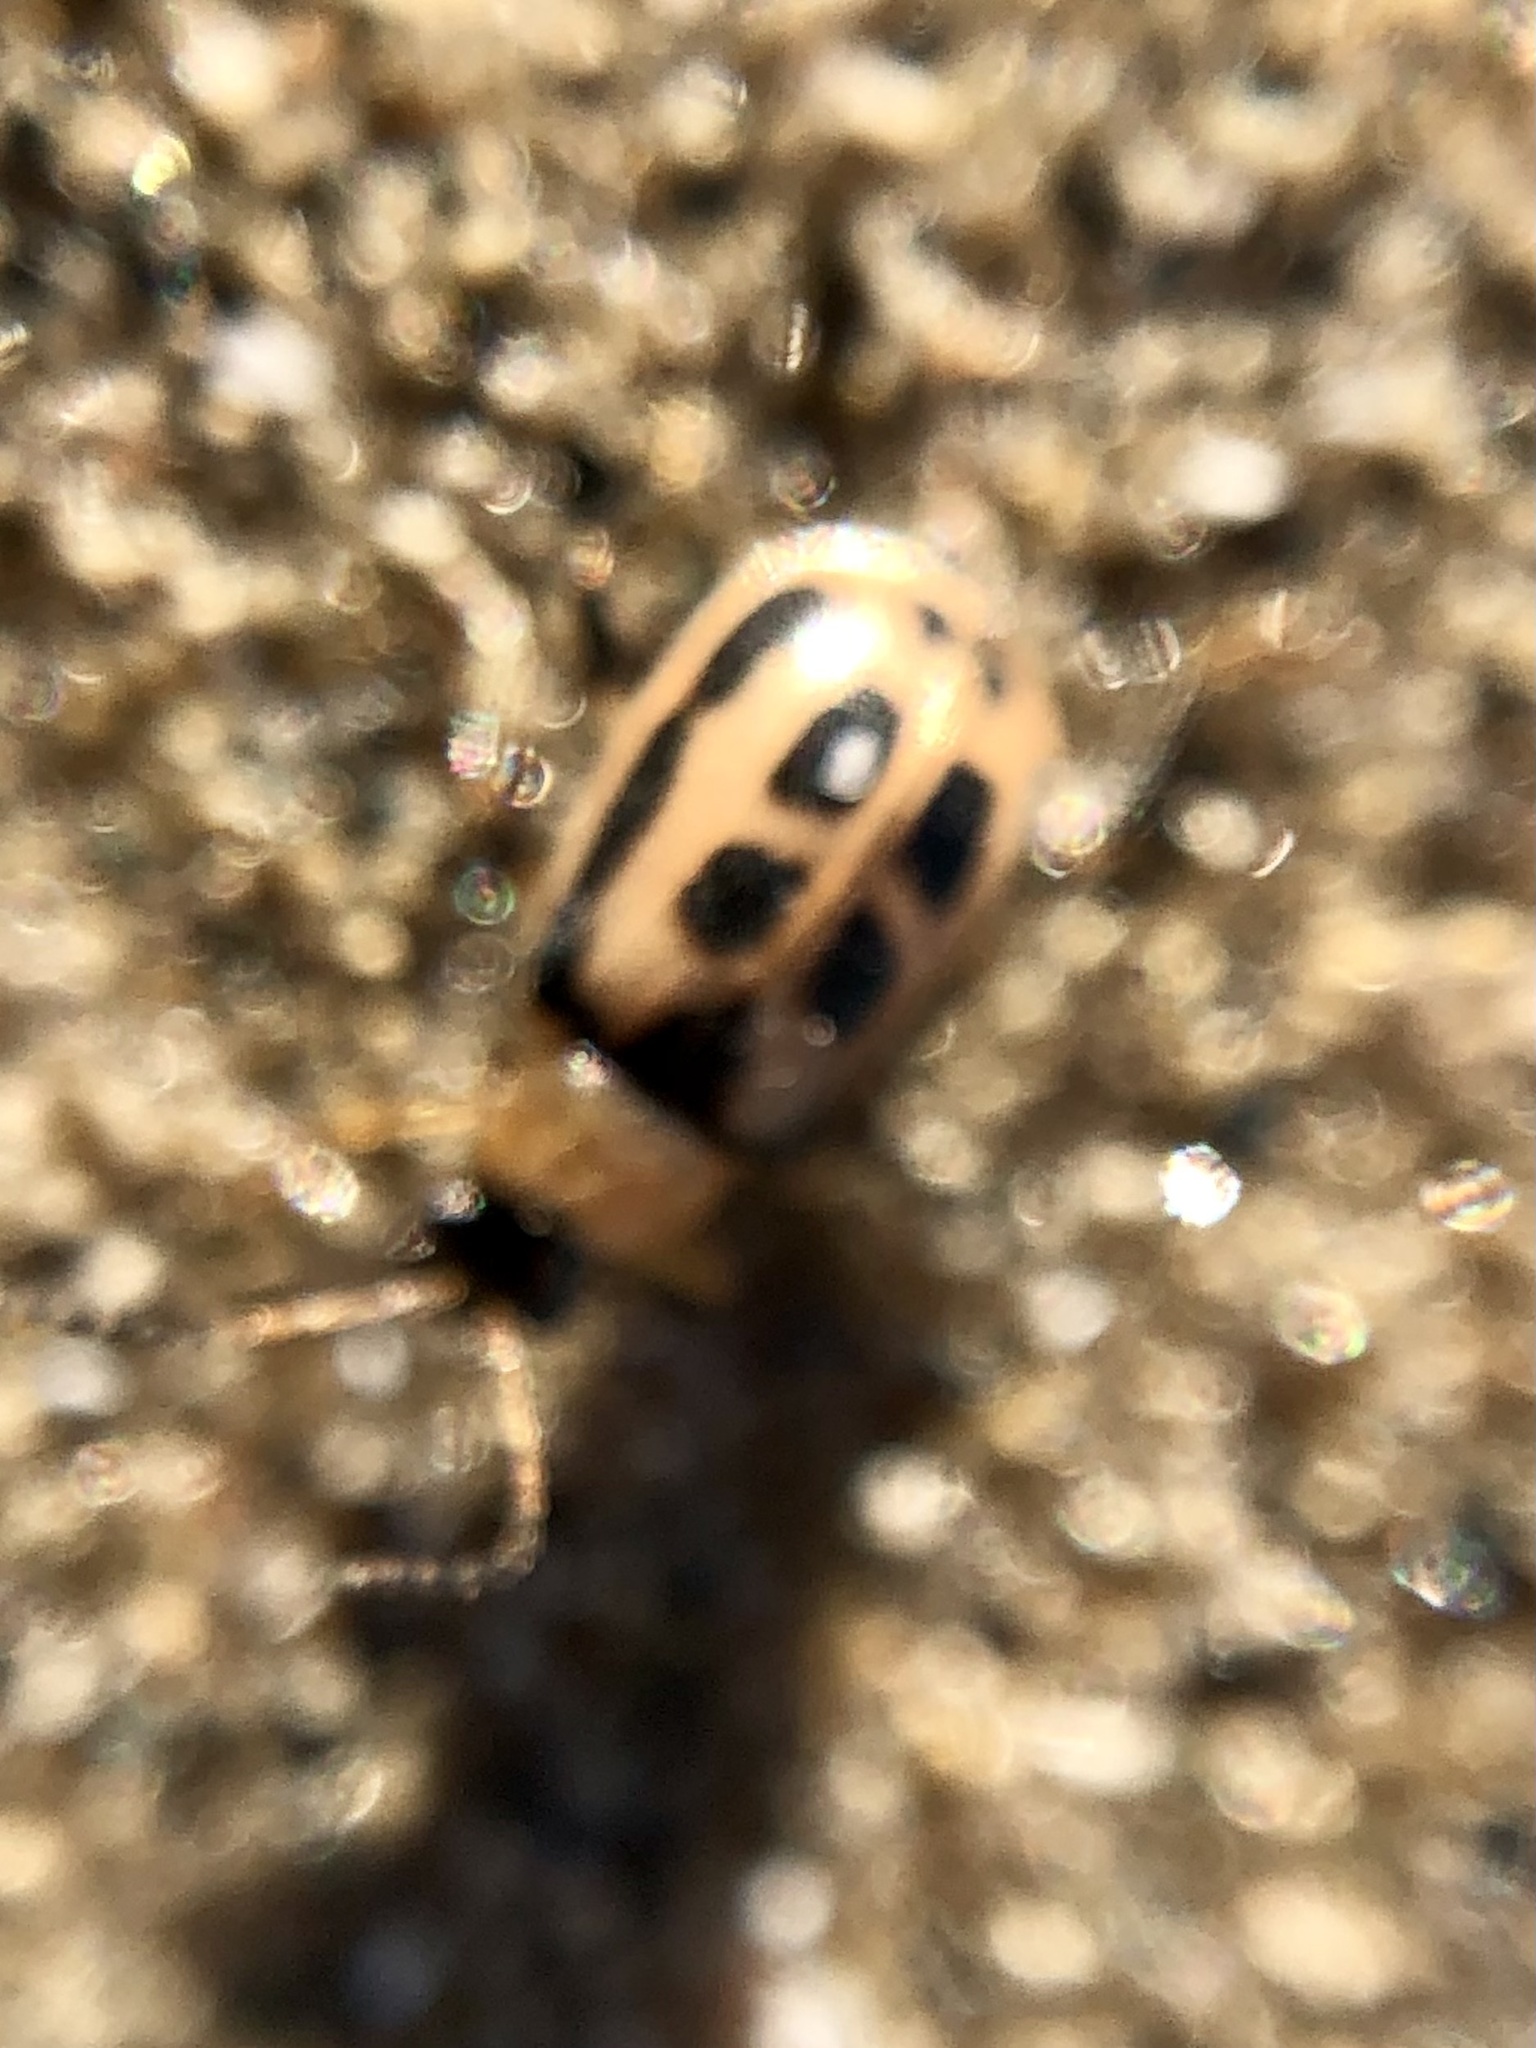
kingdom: Animalia
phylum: Arthropoda
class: Insecta
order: Coleoptera
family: Chrysomelidae
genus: Cerotoma
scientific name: Cerotoma trifurcata
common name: Bean leaf beetle
